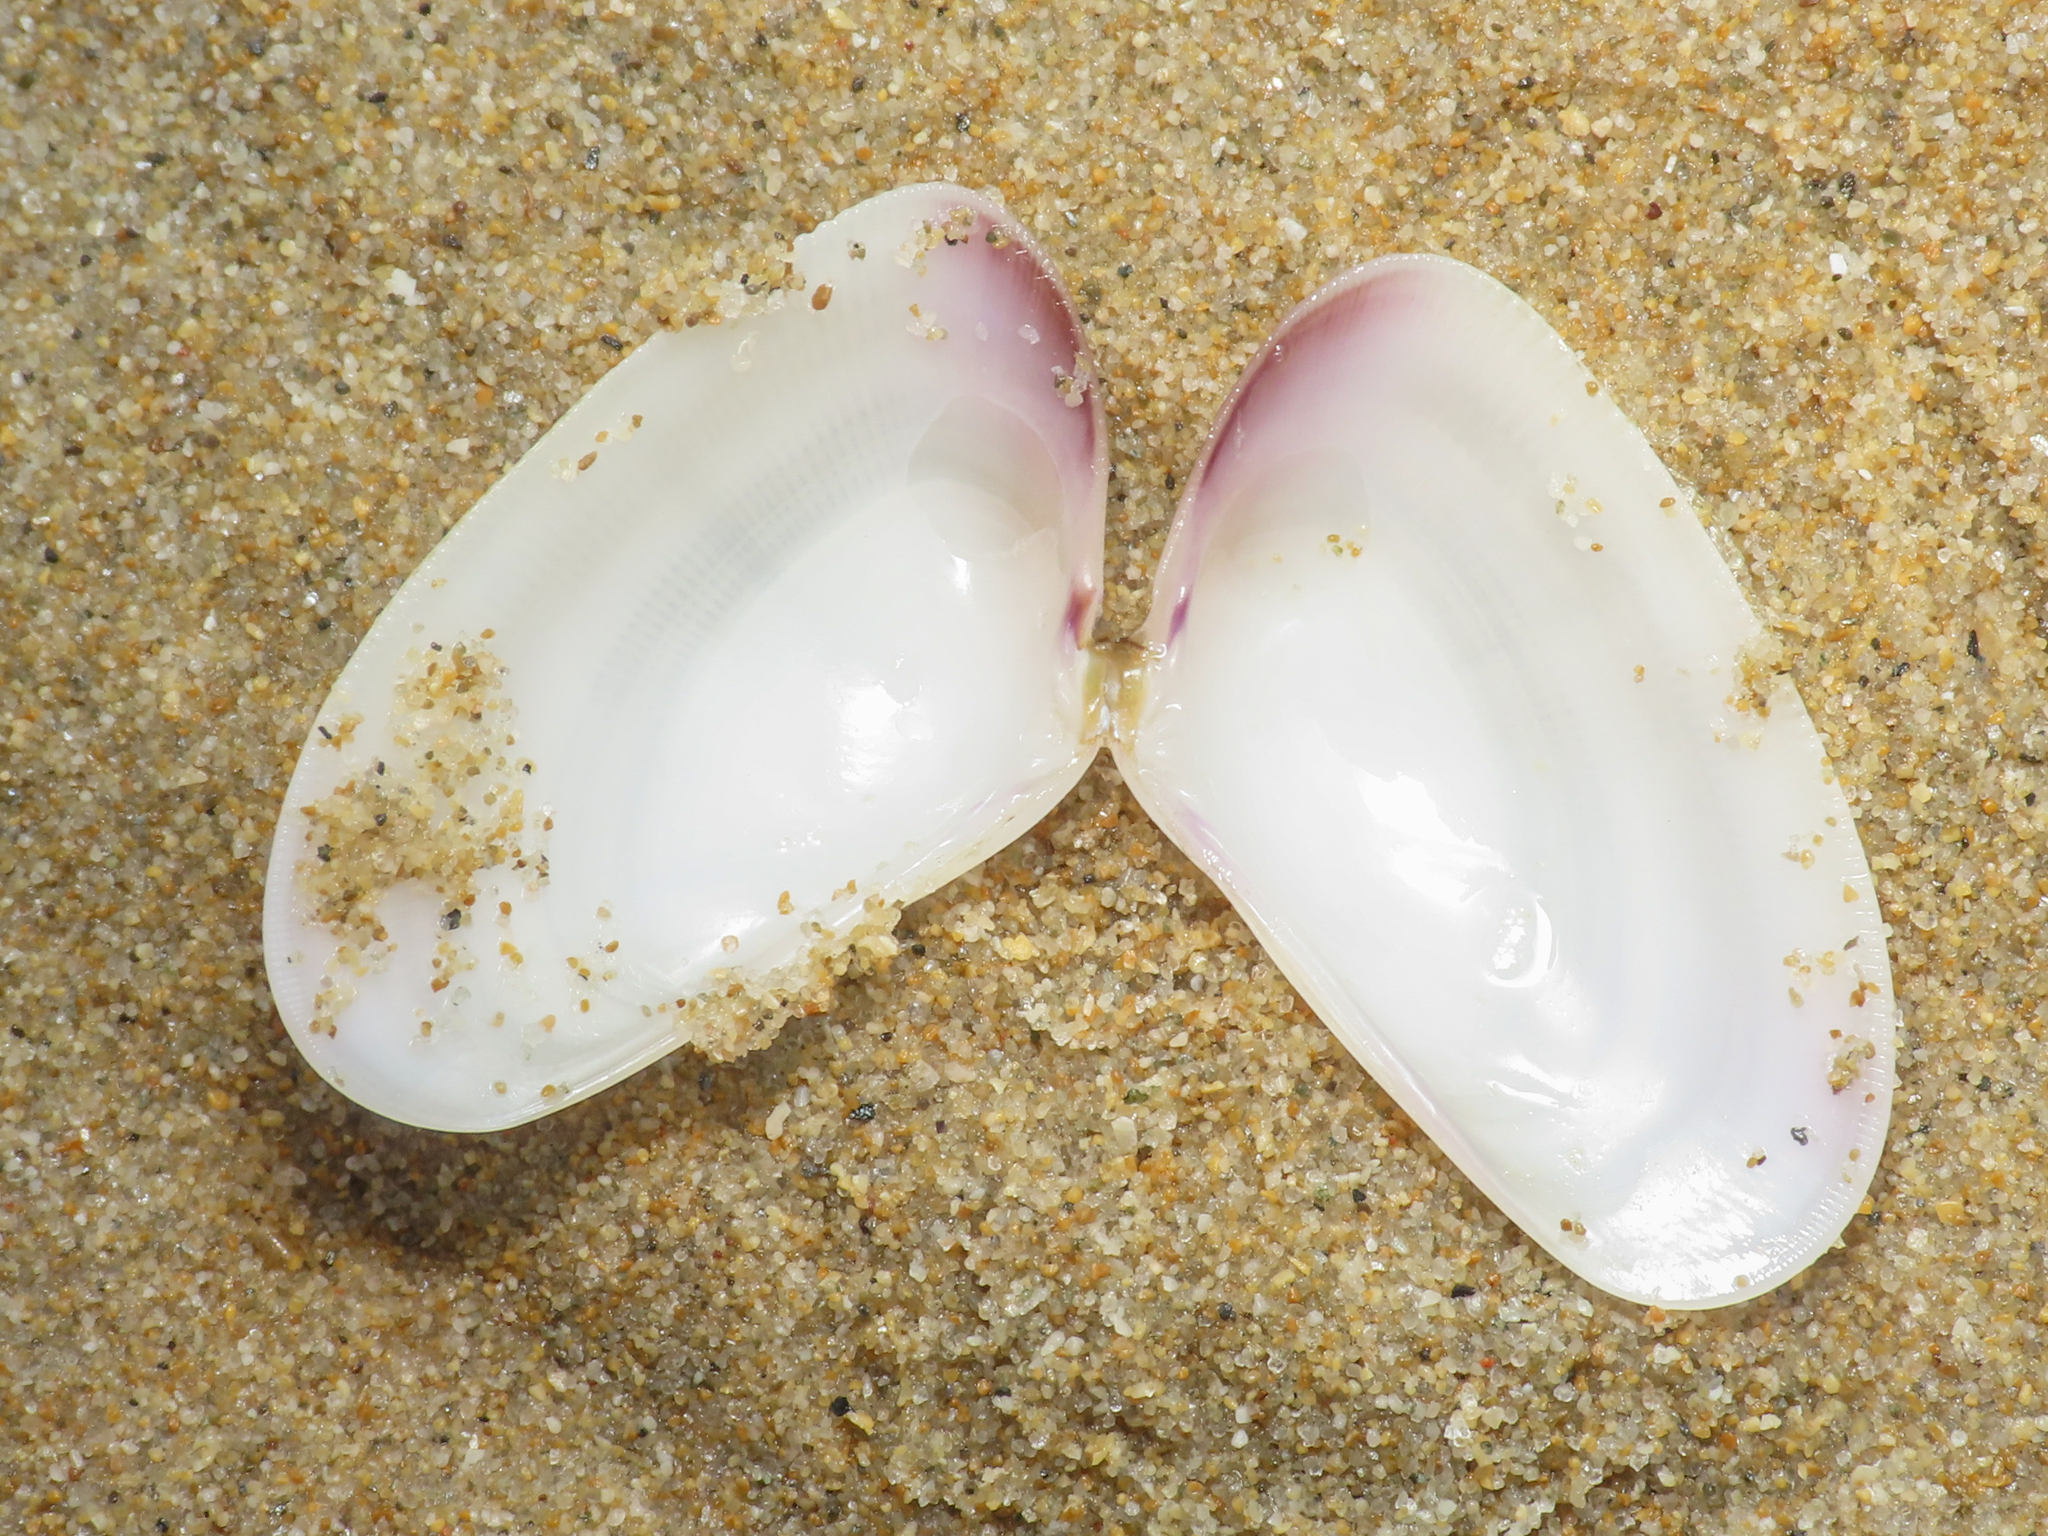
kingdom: Animalia
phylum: Mollusca
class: Bivalvia
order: Cardiida
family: Donacidae
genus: Donax
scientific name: Donax trunculus
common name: Truncate donax
